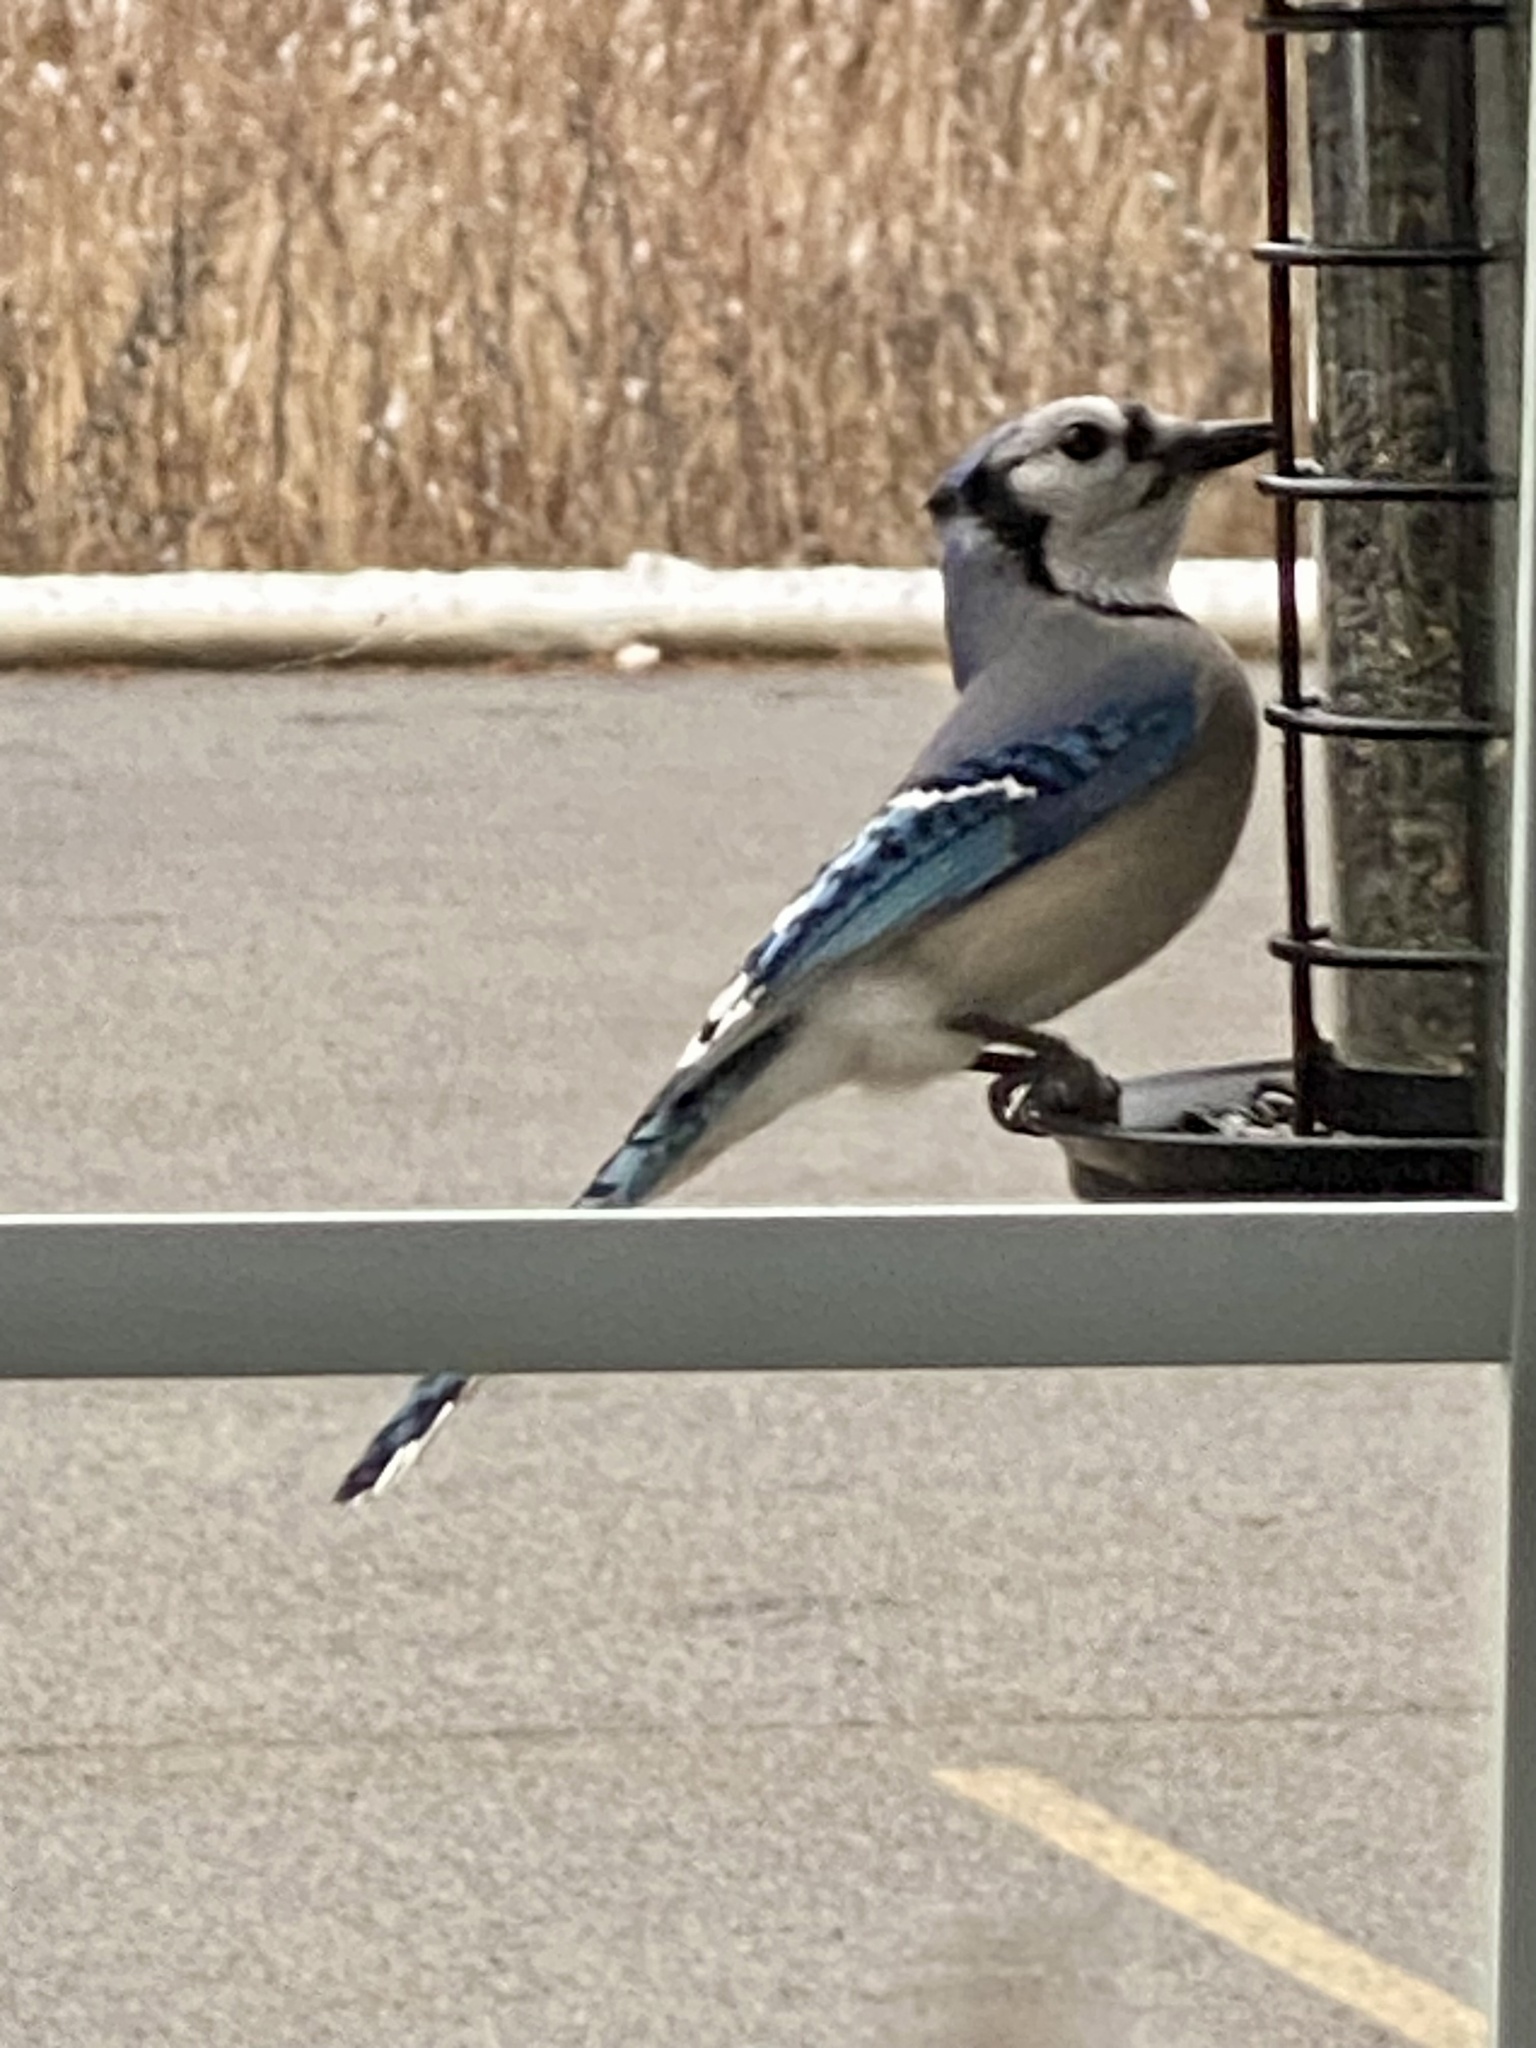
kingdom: Animalia
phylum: Chordata
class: Aves
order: Passeriformes
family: Corvidae
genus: Cyanocitta
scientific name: Cyanocitta cristata
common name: Blue jay
